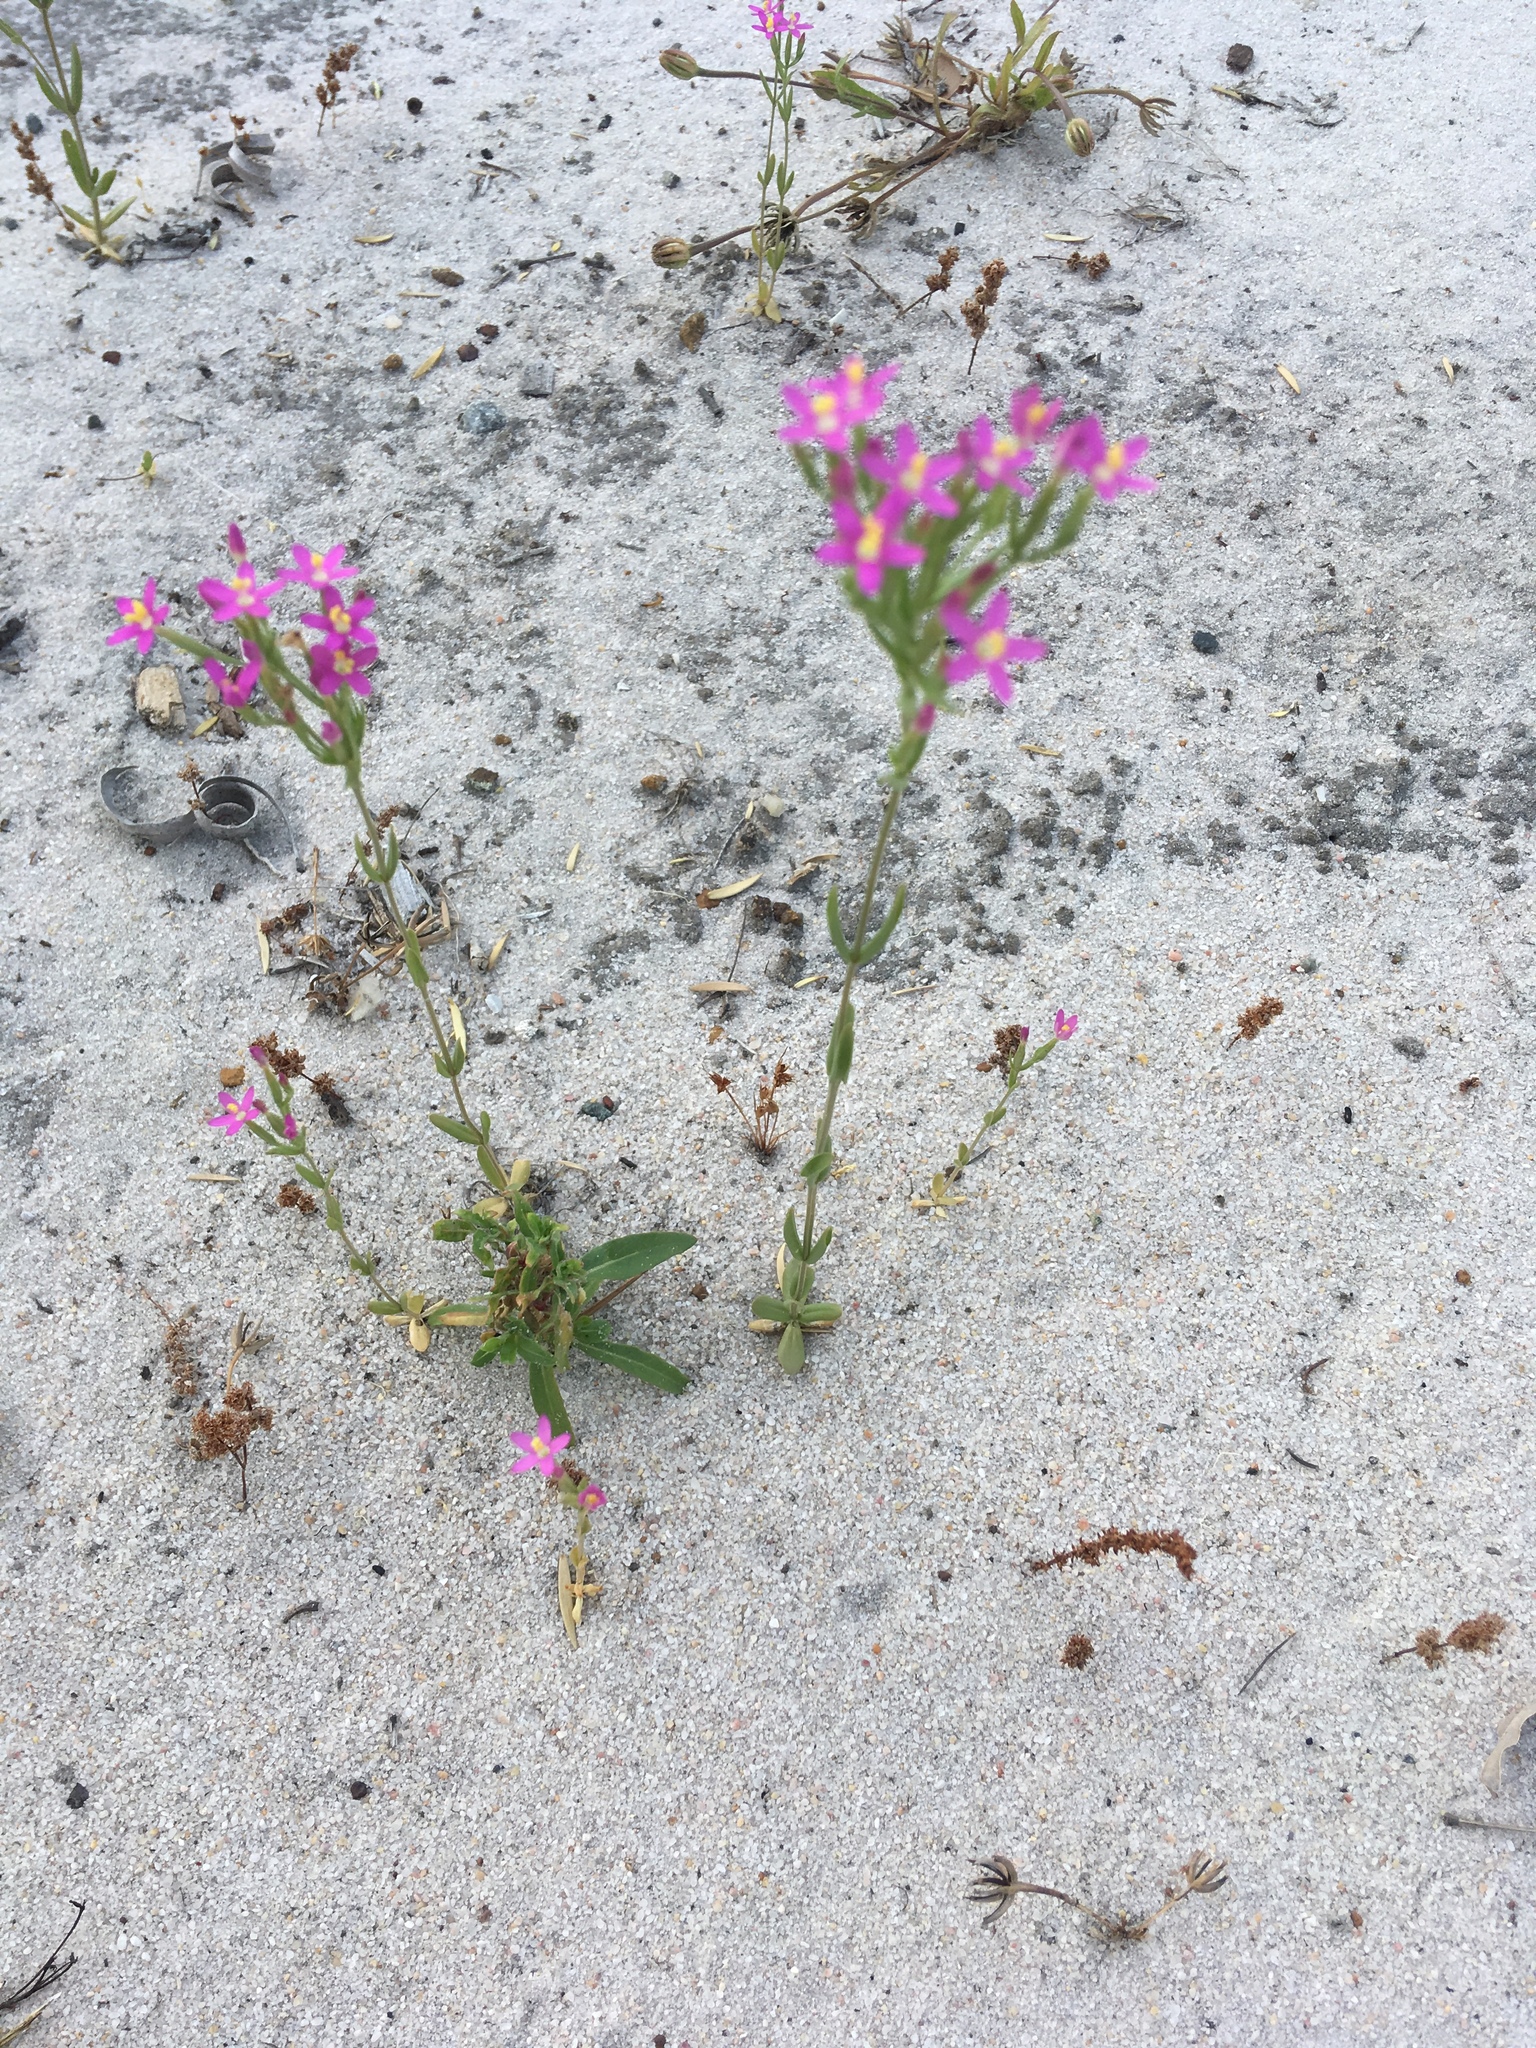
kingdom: Plantae
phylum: Tracheophyta
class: Magnoliopsida
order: Gentianales
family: Gentianaceae
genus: Centaurium
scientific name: Centaurium tenuiflorum
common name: Slender centaury
